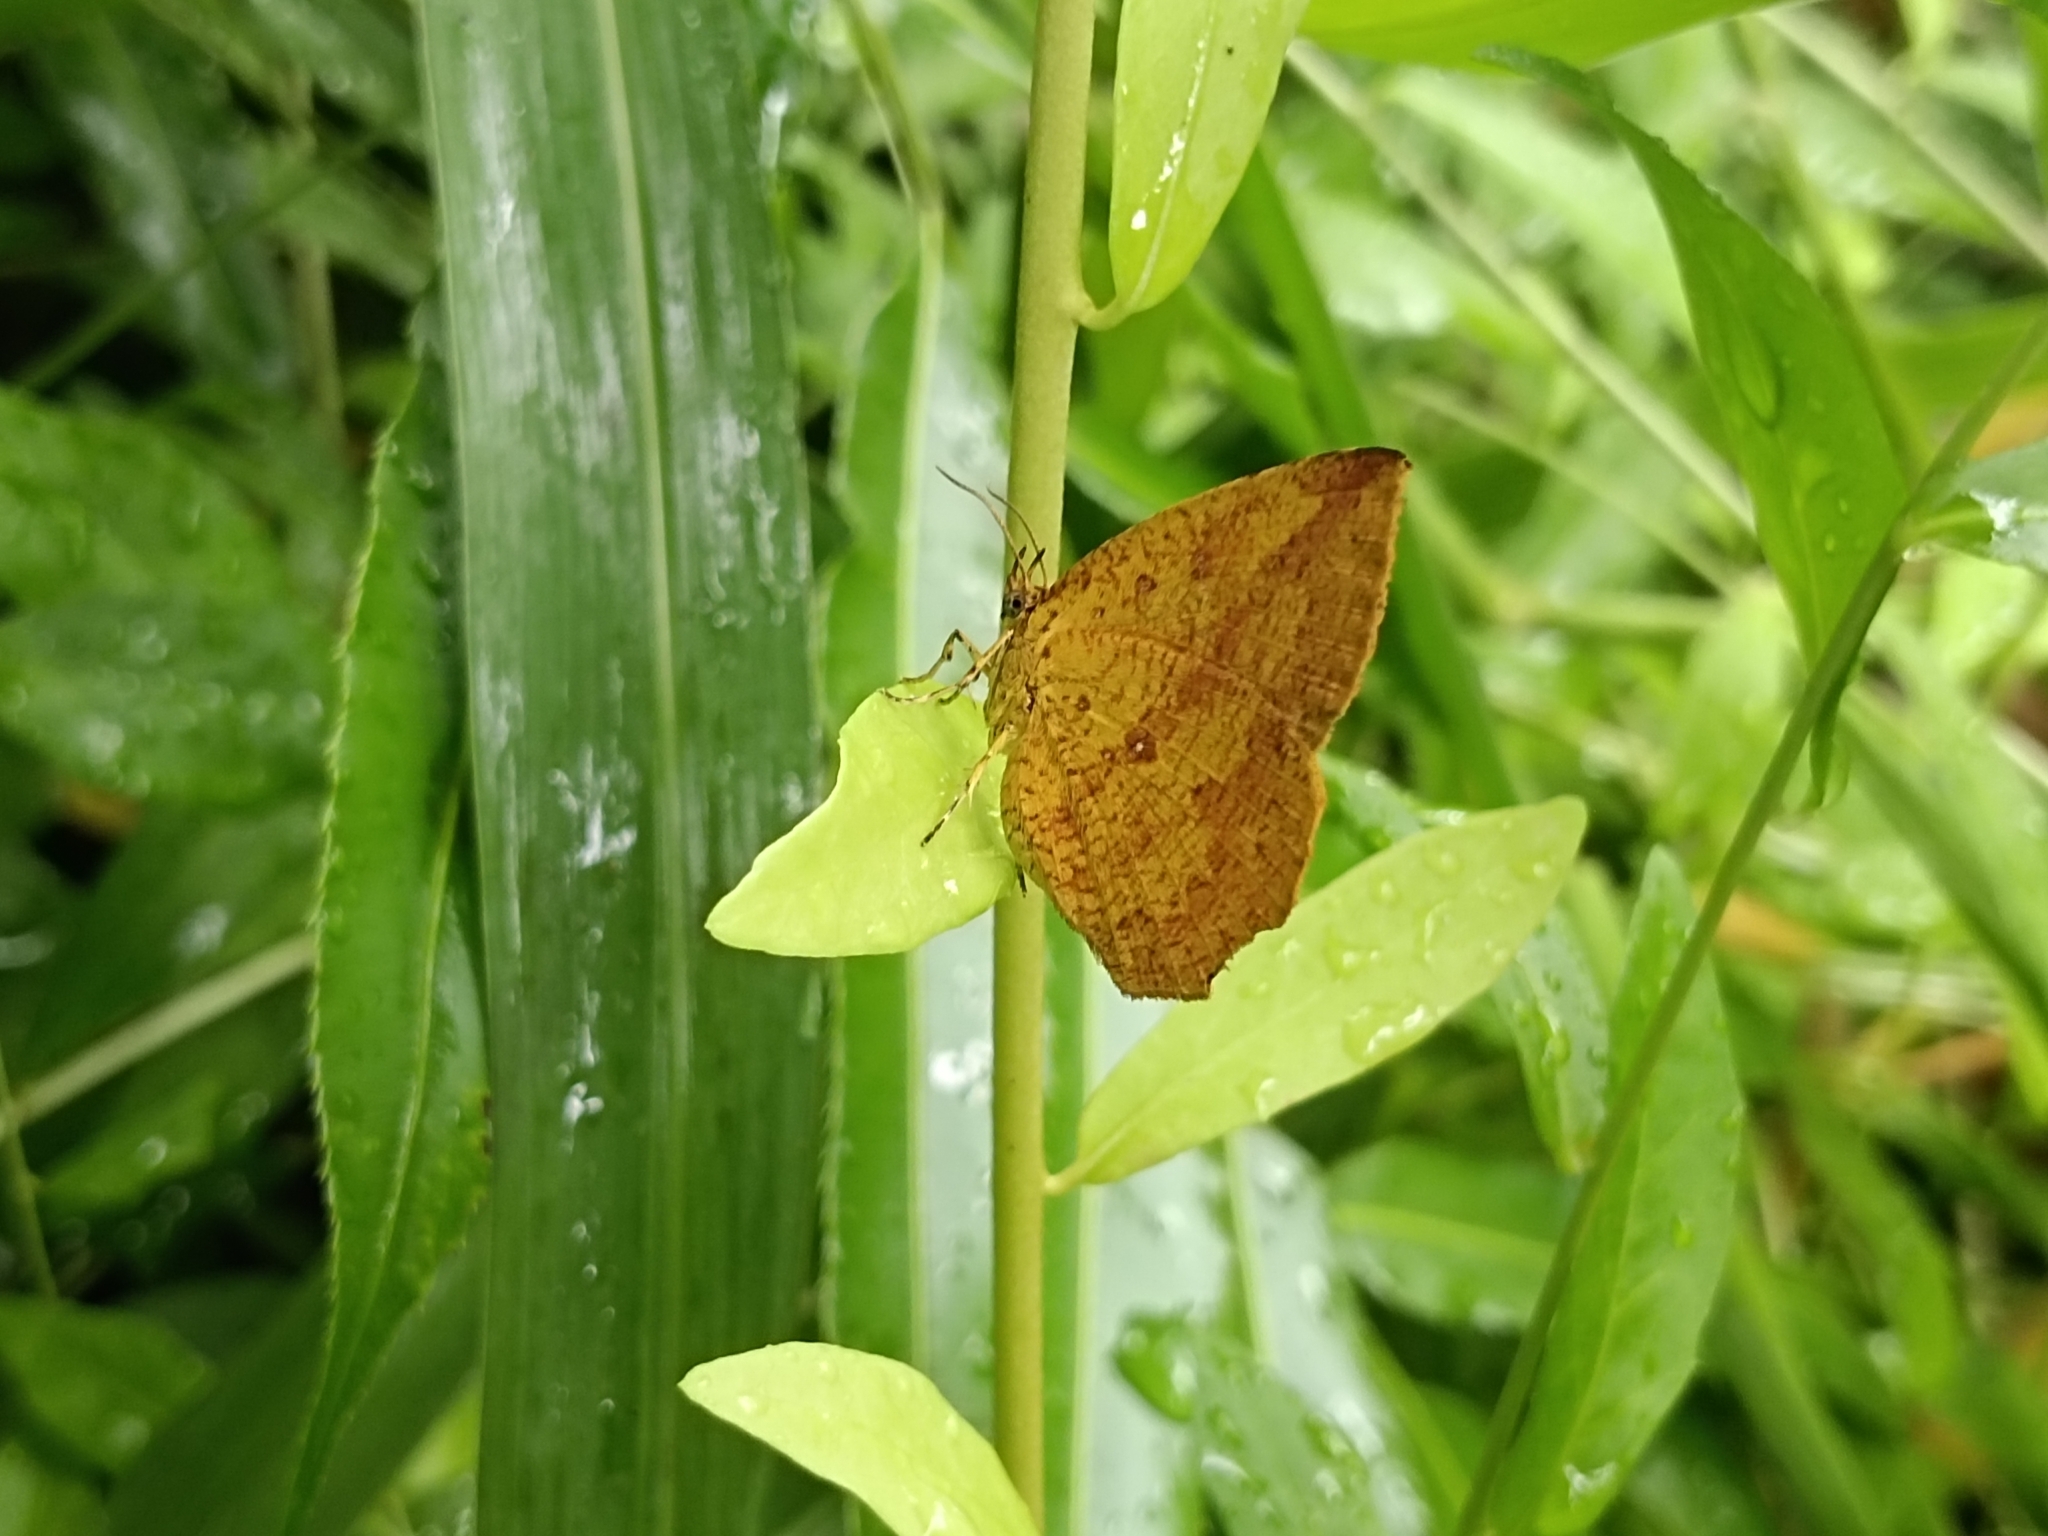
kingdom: Animalia
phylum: Arthropoda
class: Insecta
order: Lepidoptera
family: Callidulidae
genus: Tetragonus
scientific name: Tetragonus catamitus
